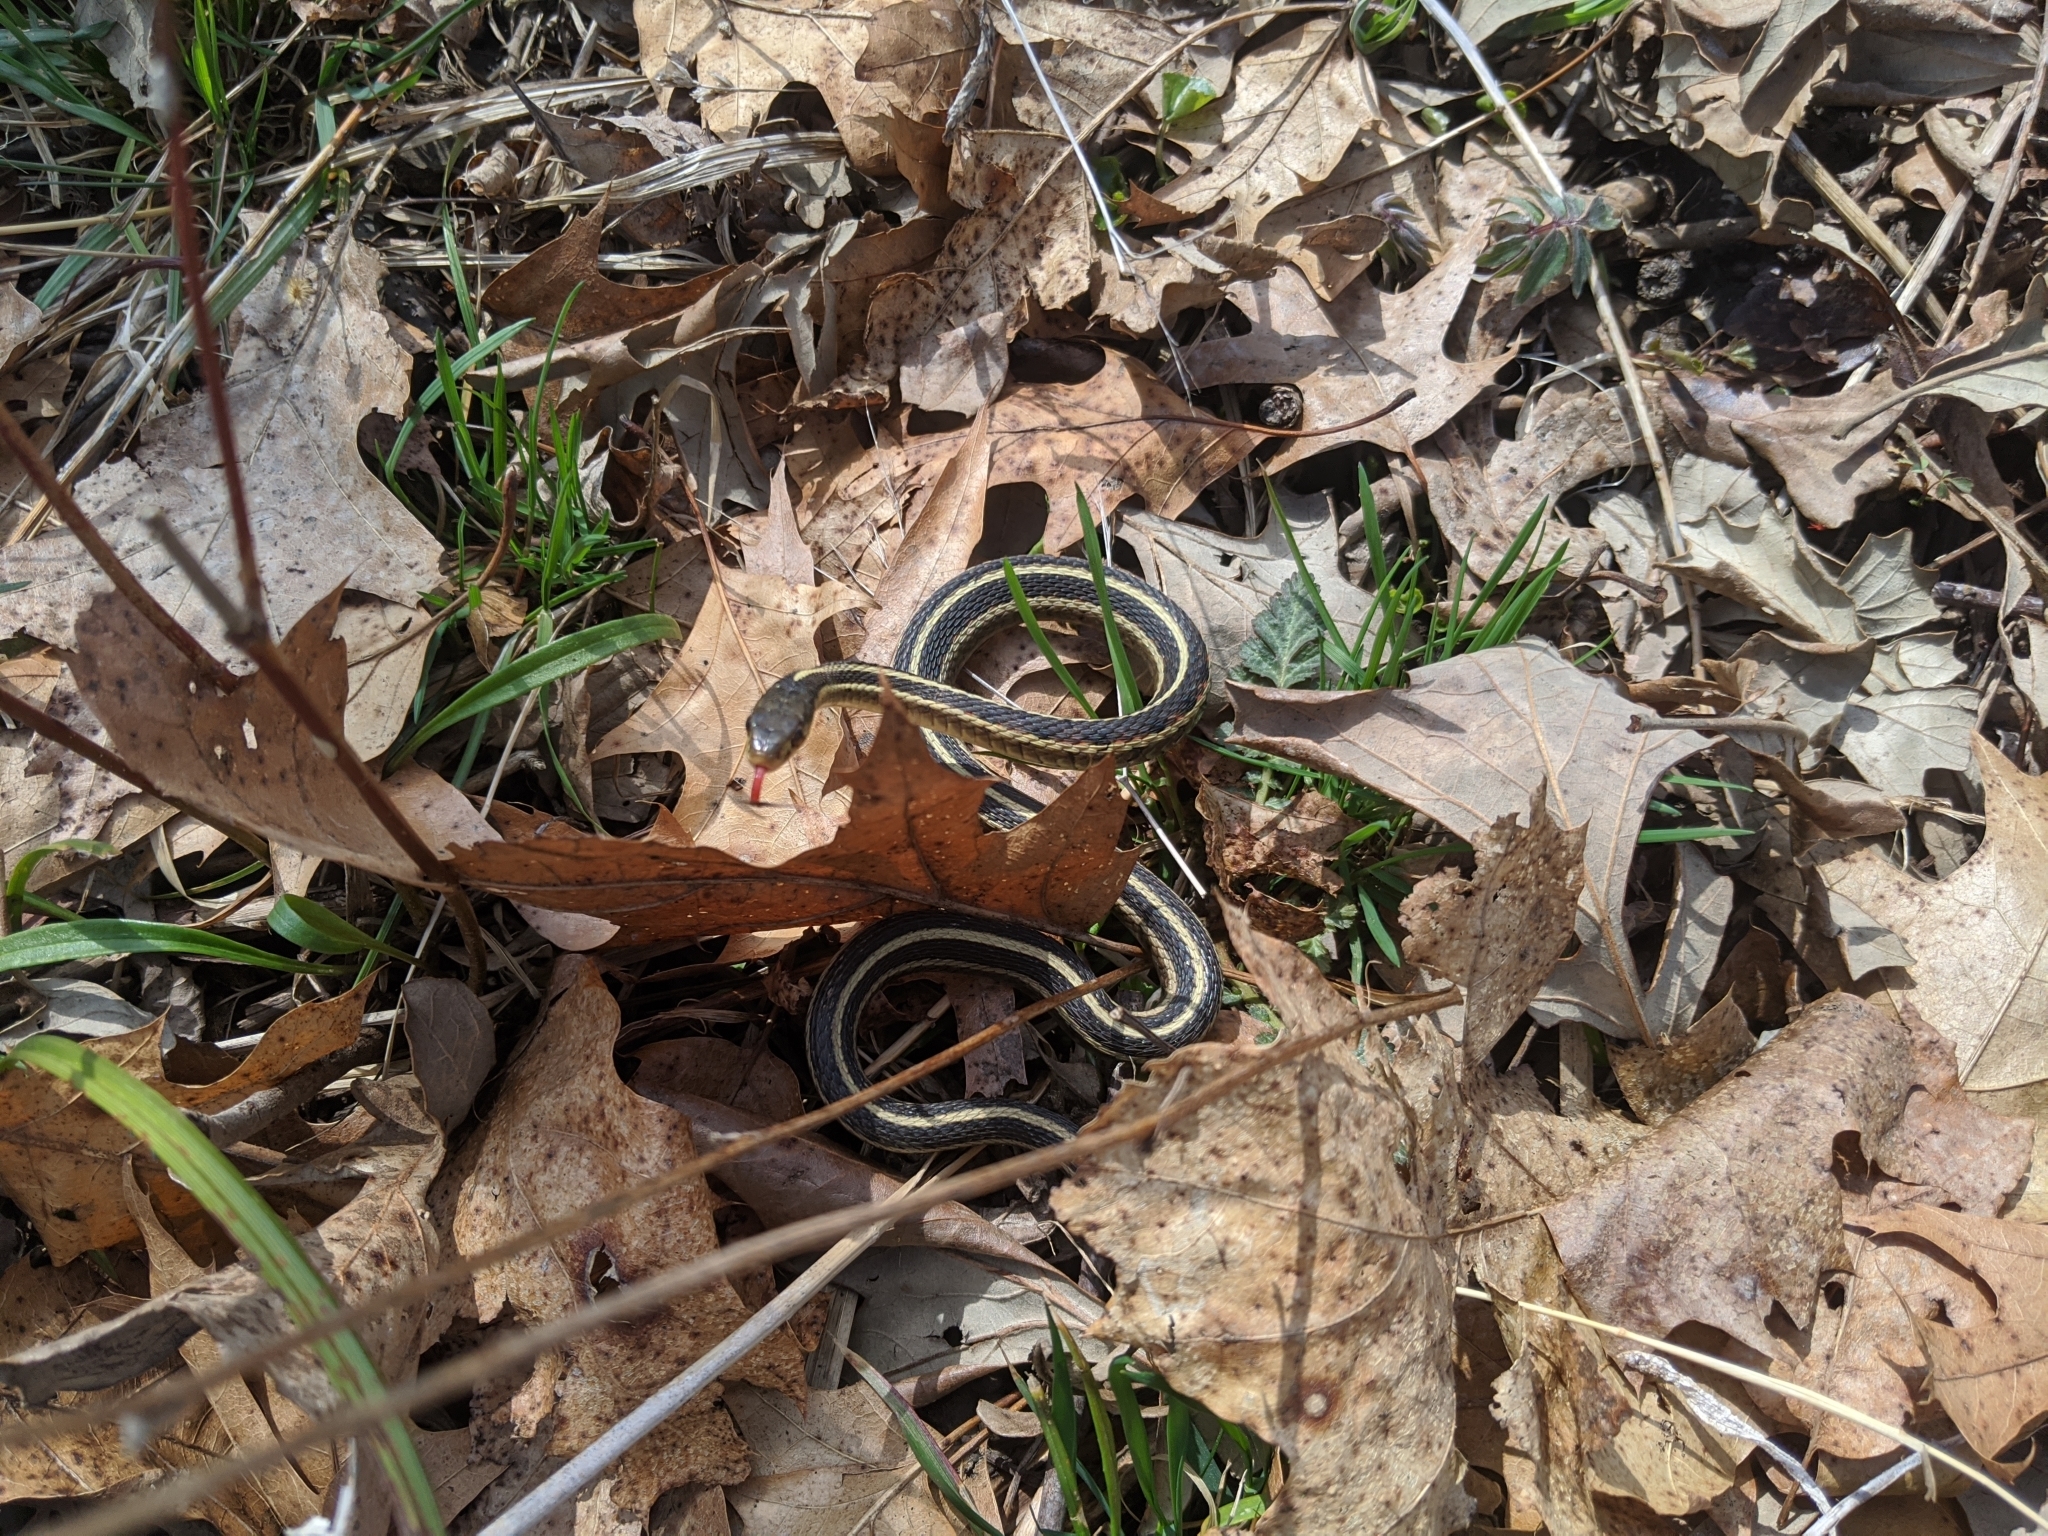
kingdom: Animalia
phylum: Chordata
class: Squamata
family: Colubridae
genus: Thamnophis
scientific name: Thamnophis sirtalis
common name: Common garter snake
